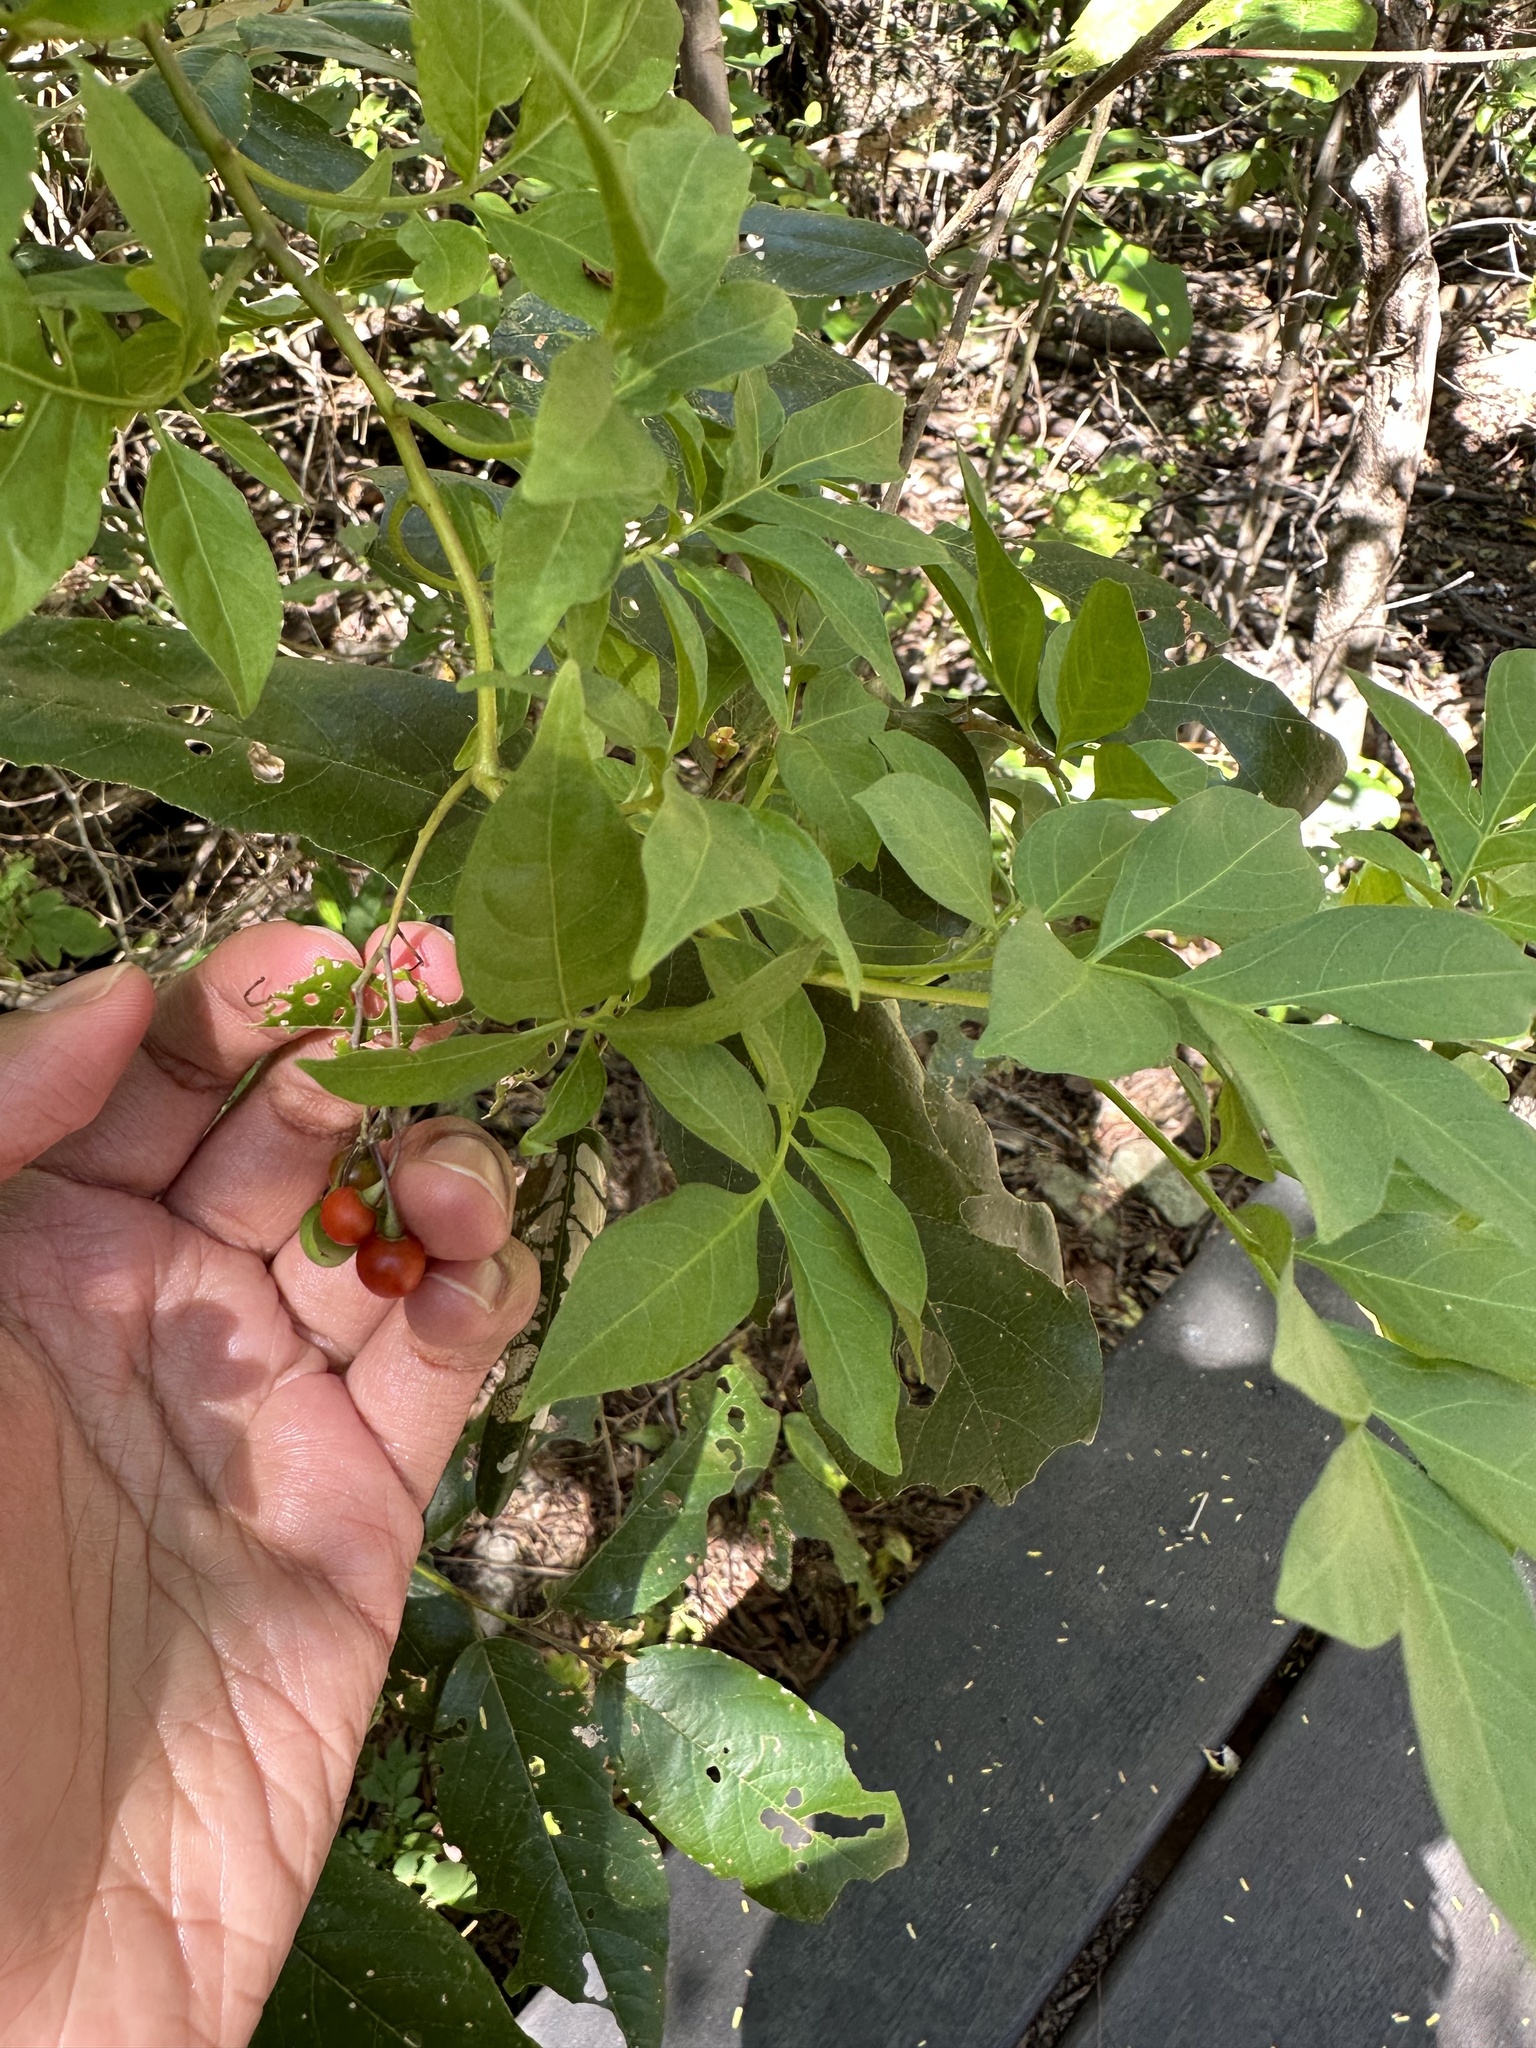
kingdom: Plantae
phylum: Tracheophyta
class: Magnoliopsida
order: Solanales
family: Solanaceae
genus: Solanum
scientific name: Solanum seaforthianum
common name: Brazilian nightshade
